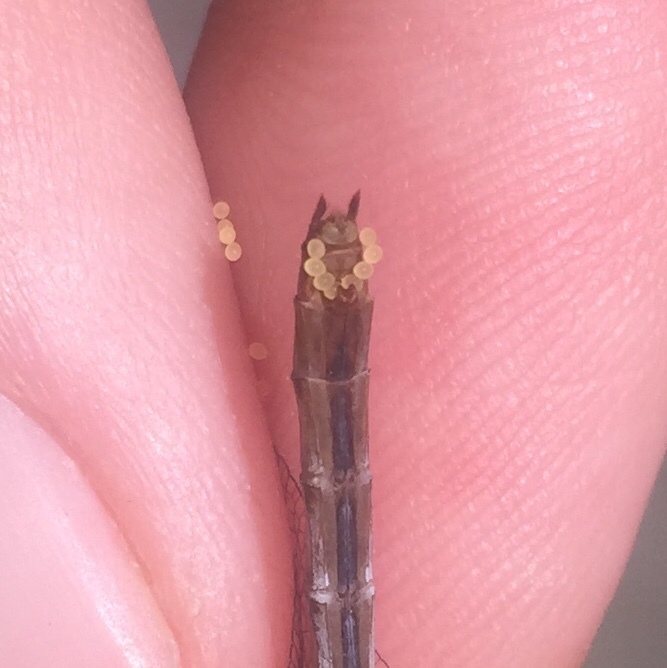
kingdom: Animalia
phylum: Arthropoda
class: Insecta
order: Odonata
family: Libellulidae
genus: Sympetrum
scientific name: Sympetrum rubicundulum
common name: Ruby meadowhawk
